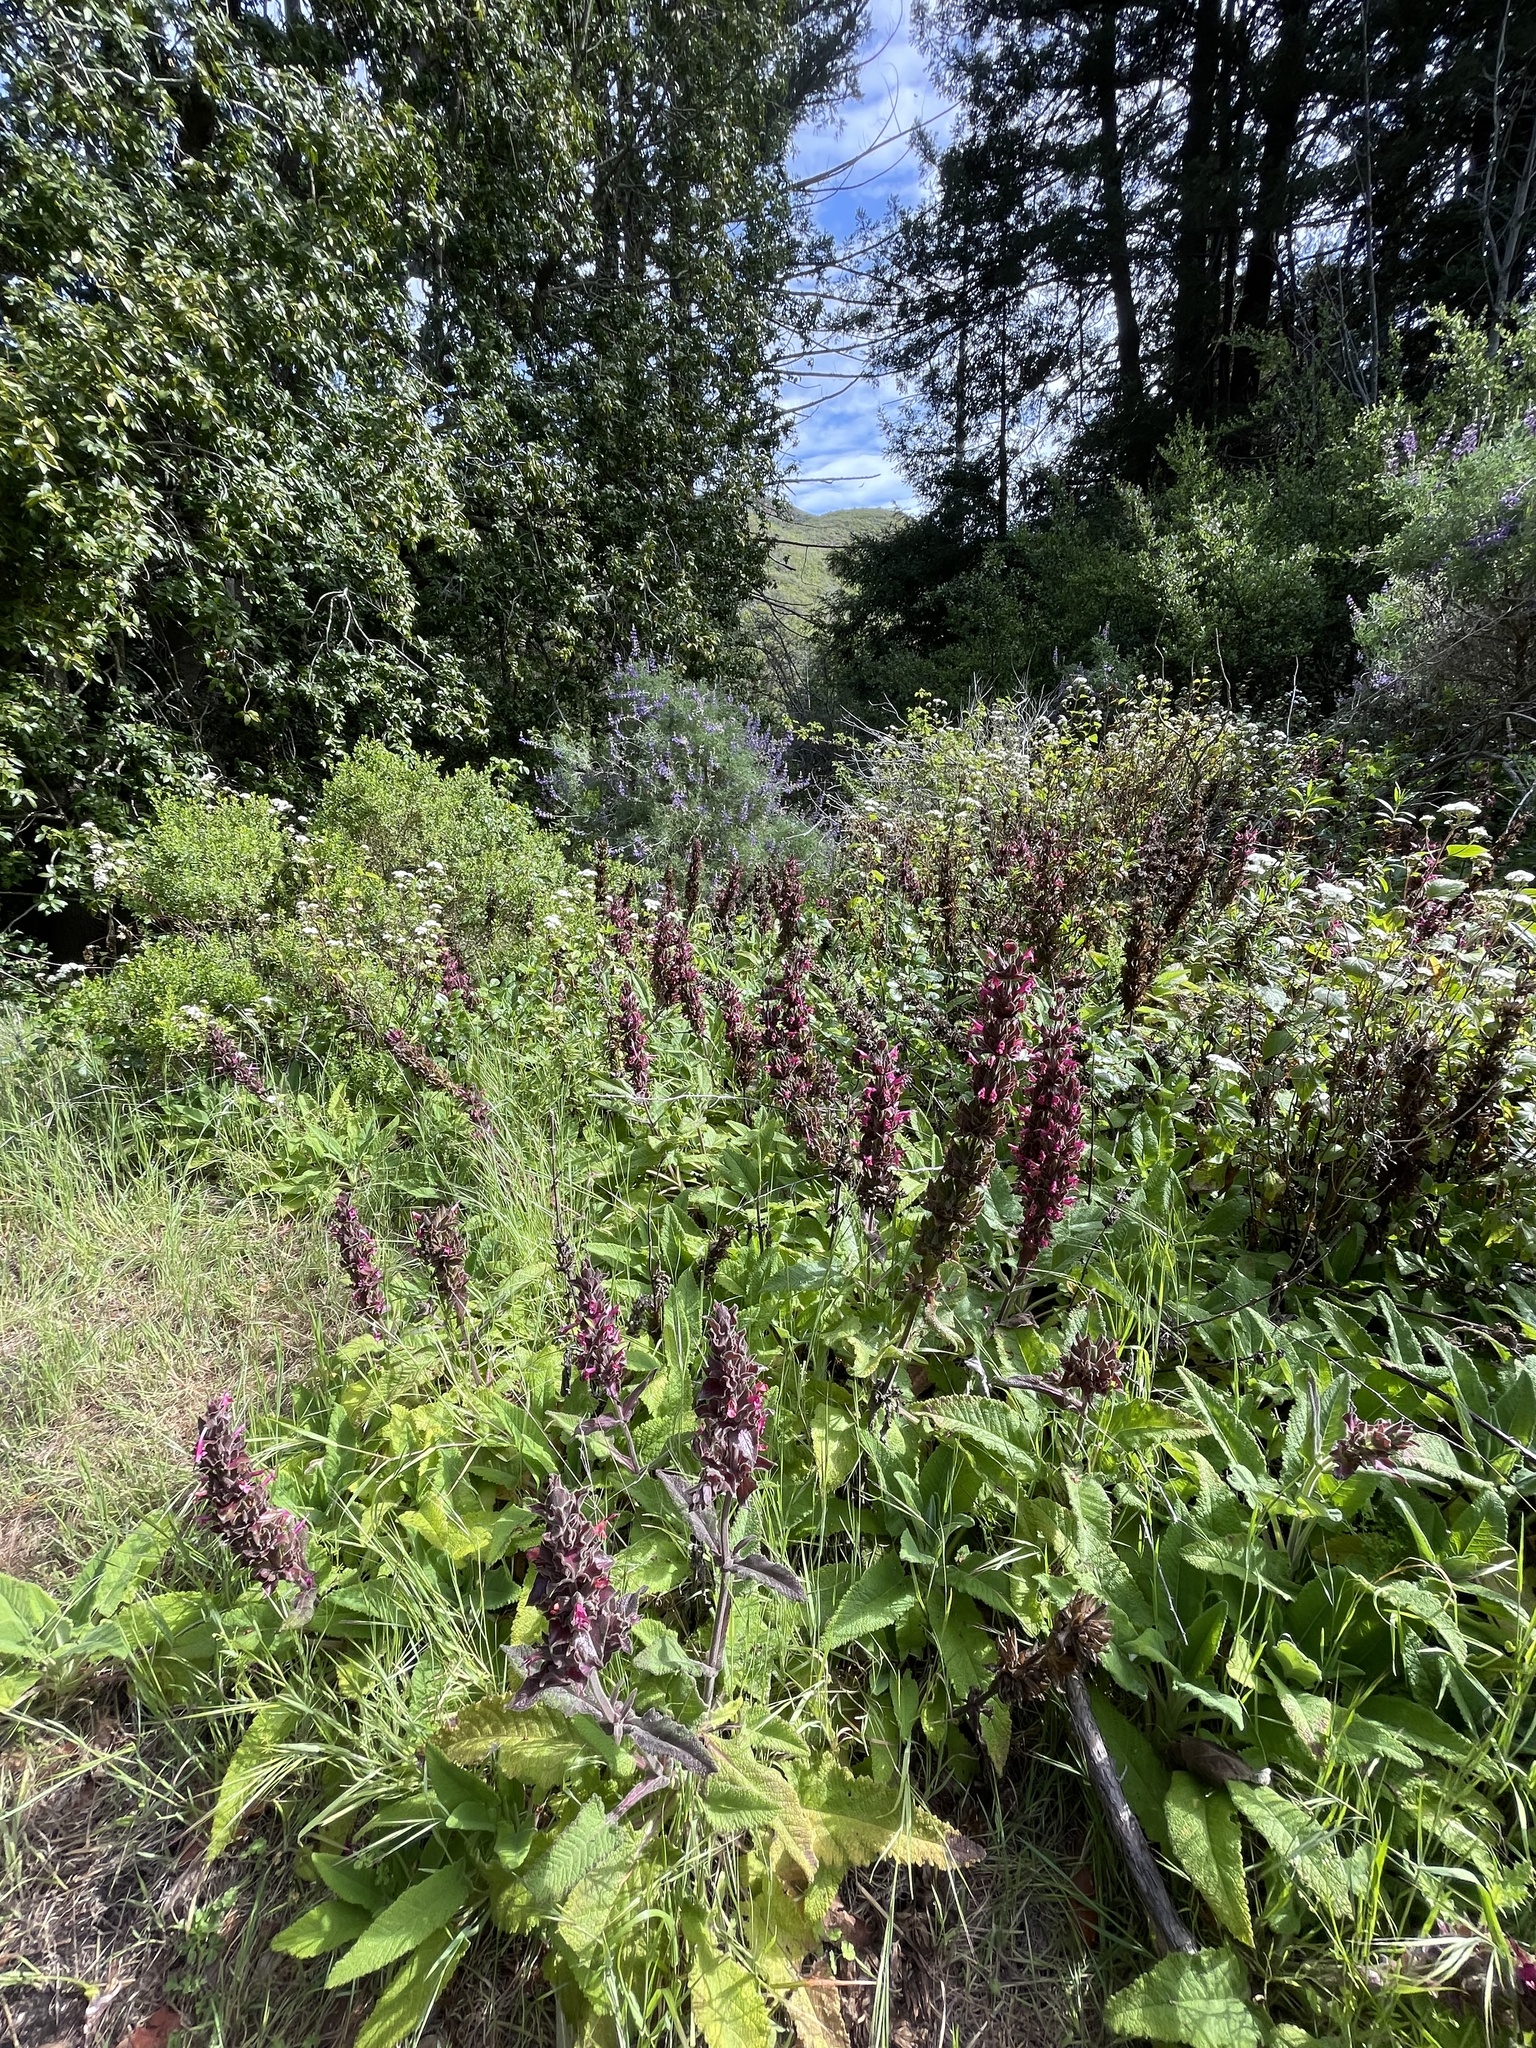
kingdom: Plantae
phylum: Tracheophyta
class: Magnoliopsida
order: Lamiales
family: Lamiaceae
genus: Salvia
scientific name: Salvia spathacea
